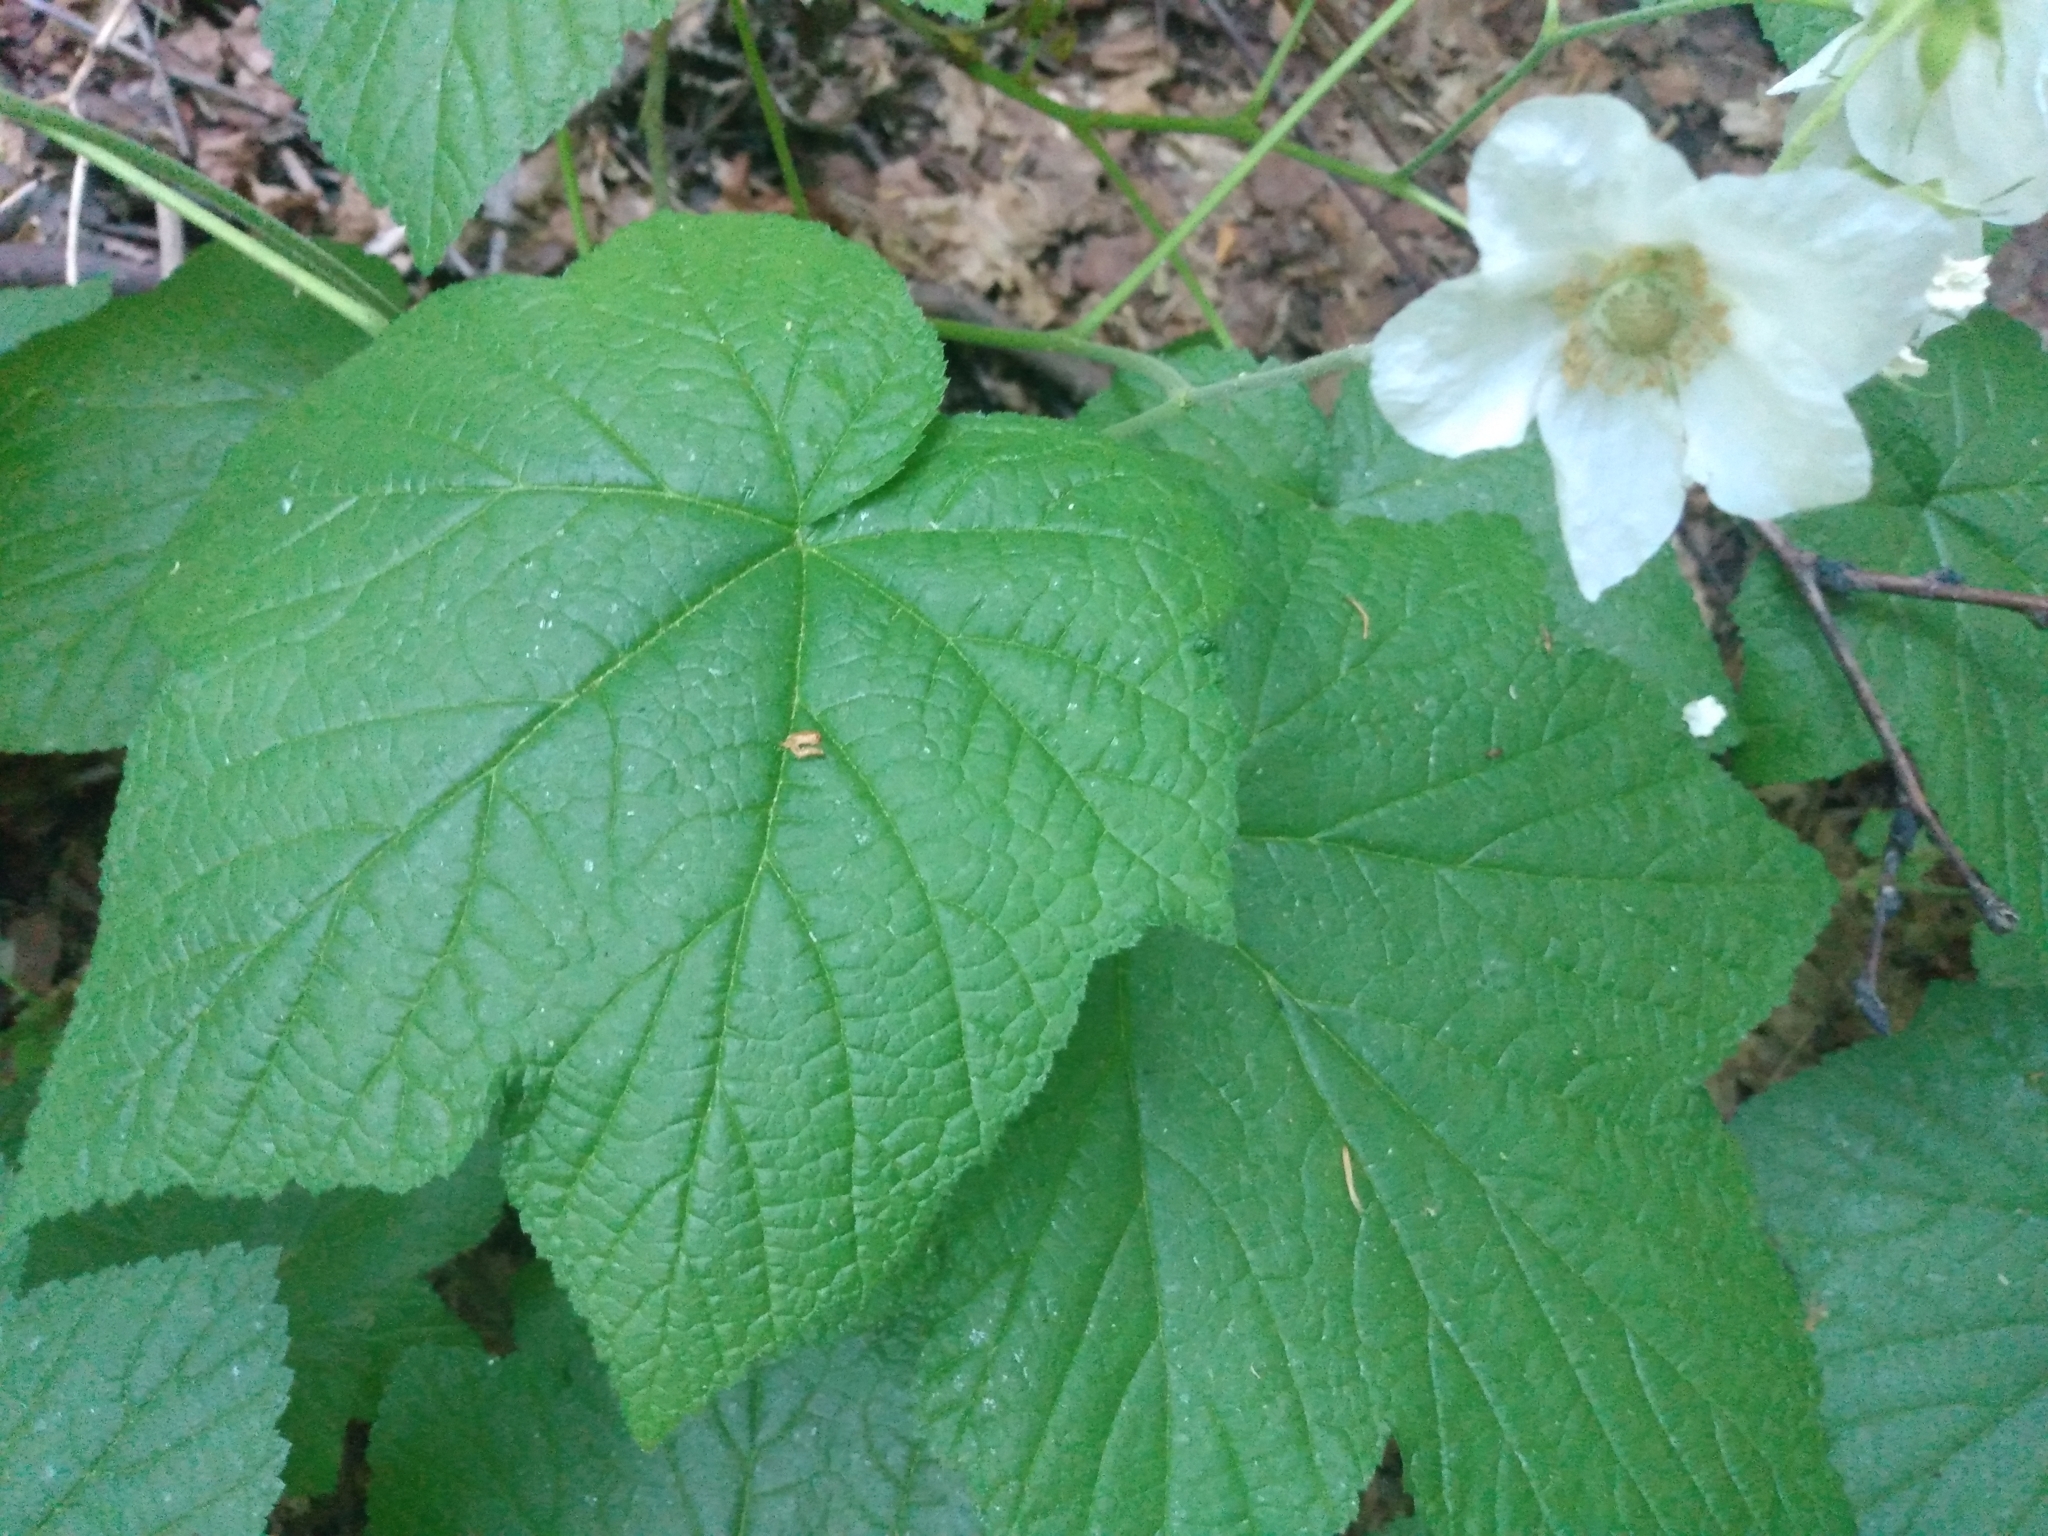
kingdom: Plantae
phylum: Tracheophyta
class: Magnoliopsida
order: Rosales
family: Rosaceae
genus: Rubus
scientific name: Rubus parviflorus
